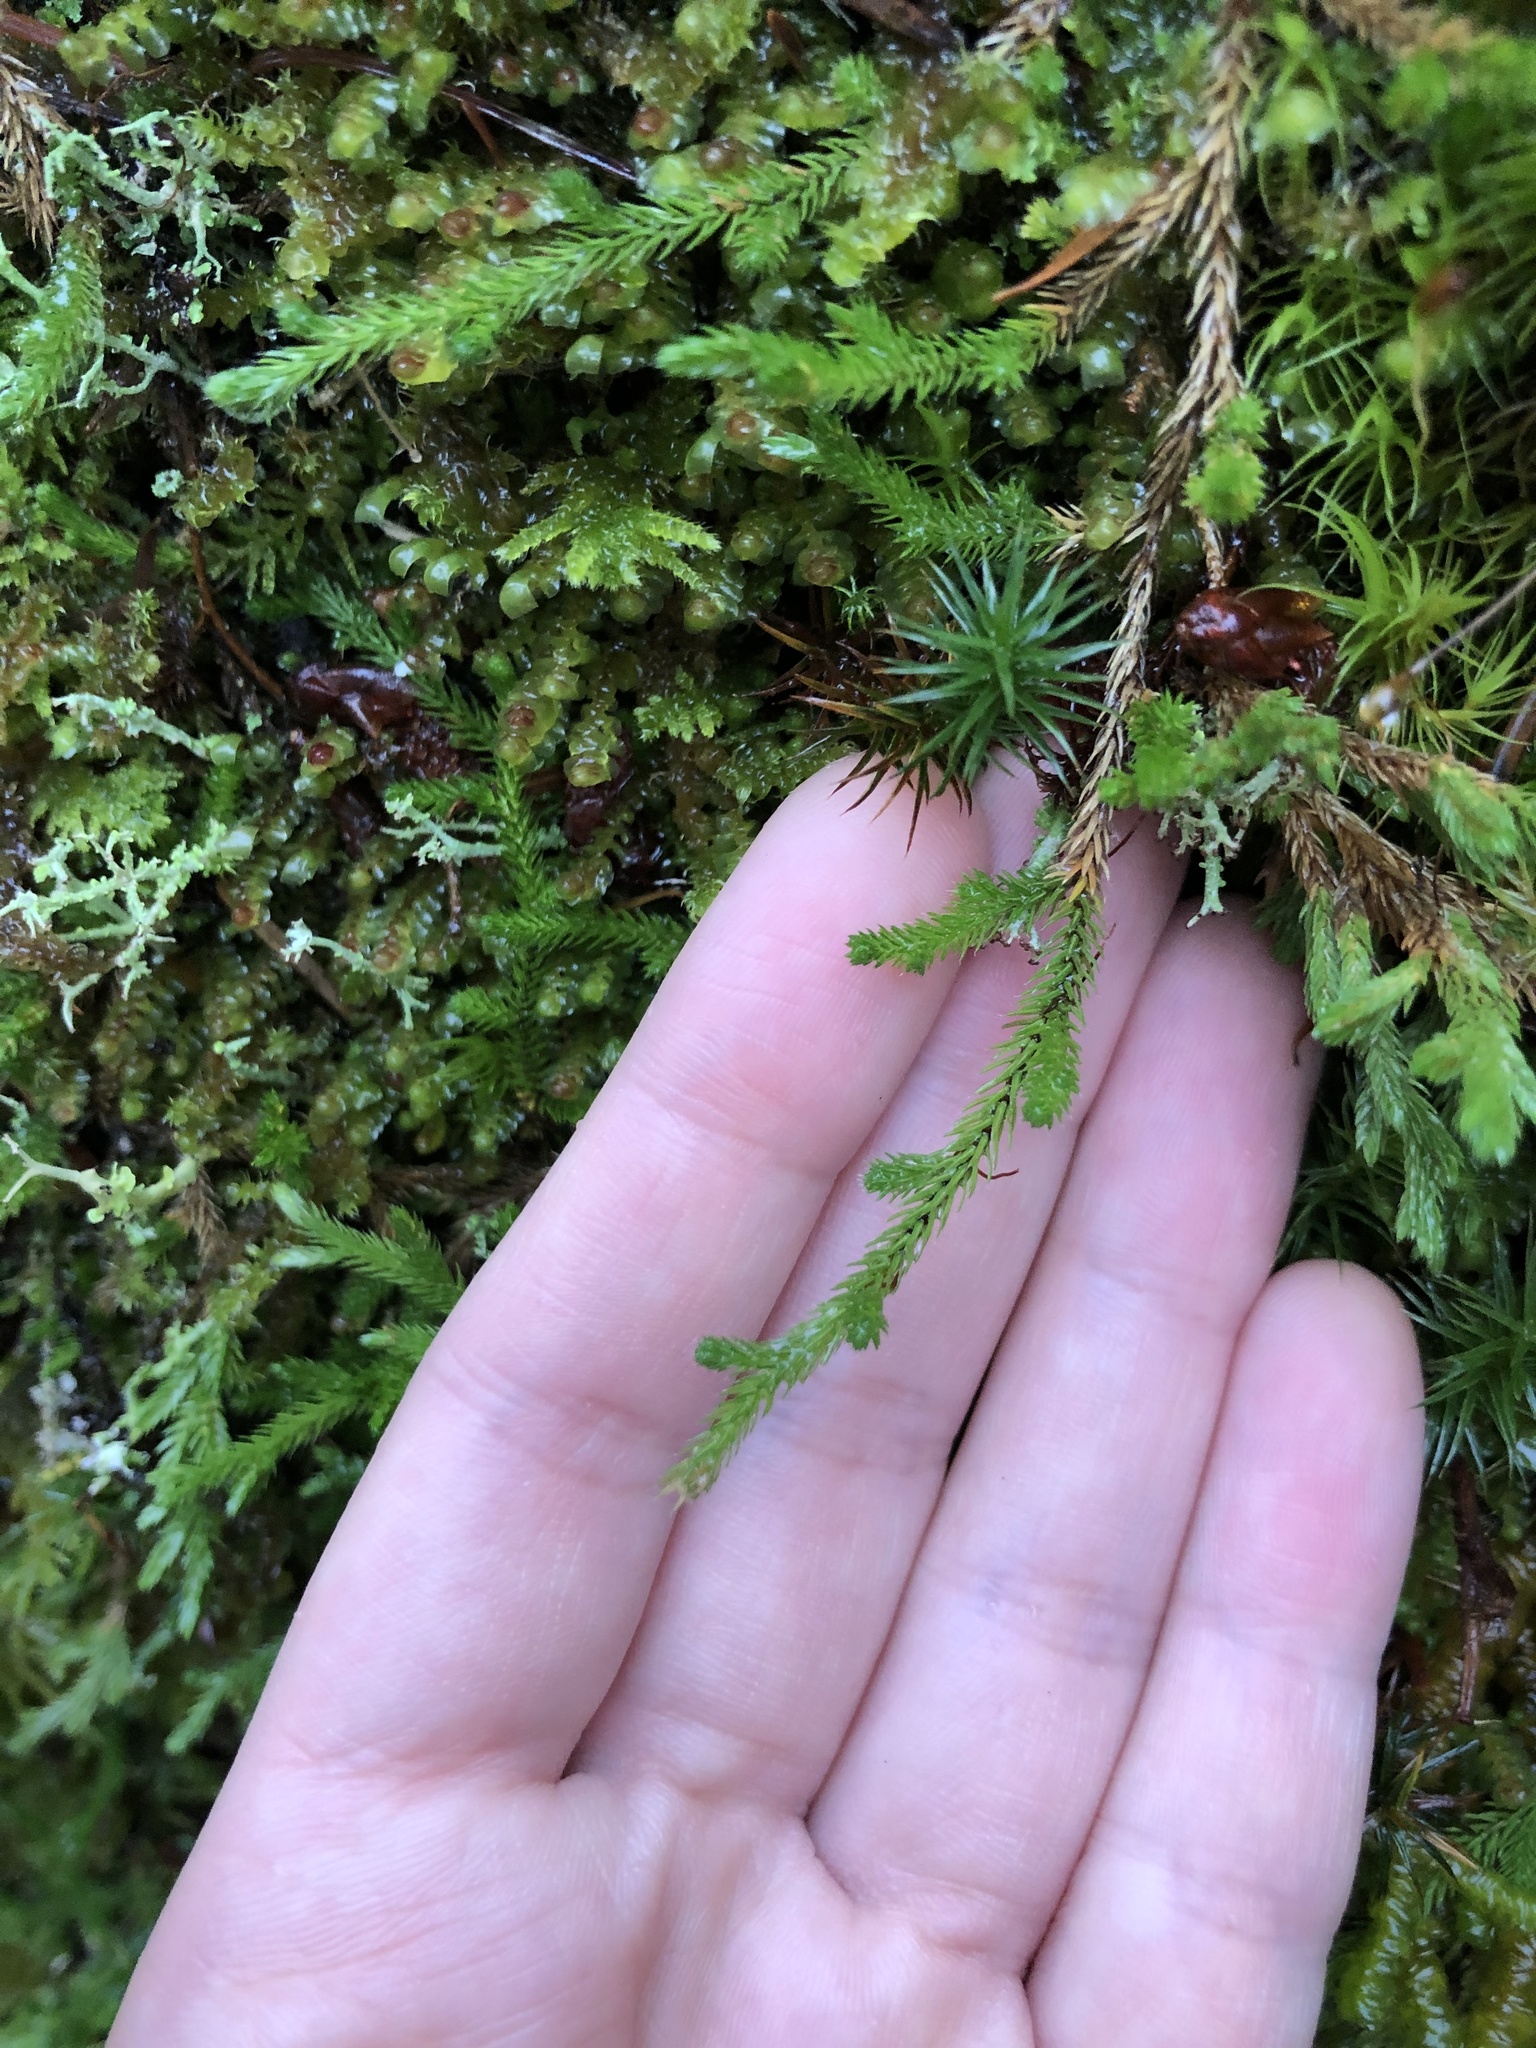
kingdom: Plantae
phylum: Tracheophyta
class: Lycopodiopsida
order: Selaginellales
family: Selaginellaceae
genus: Selaginella
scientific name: Selaginella wallacei
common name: Wallace's selaginella
